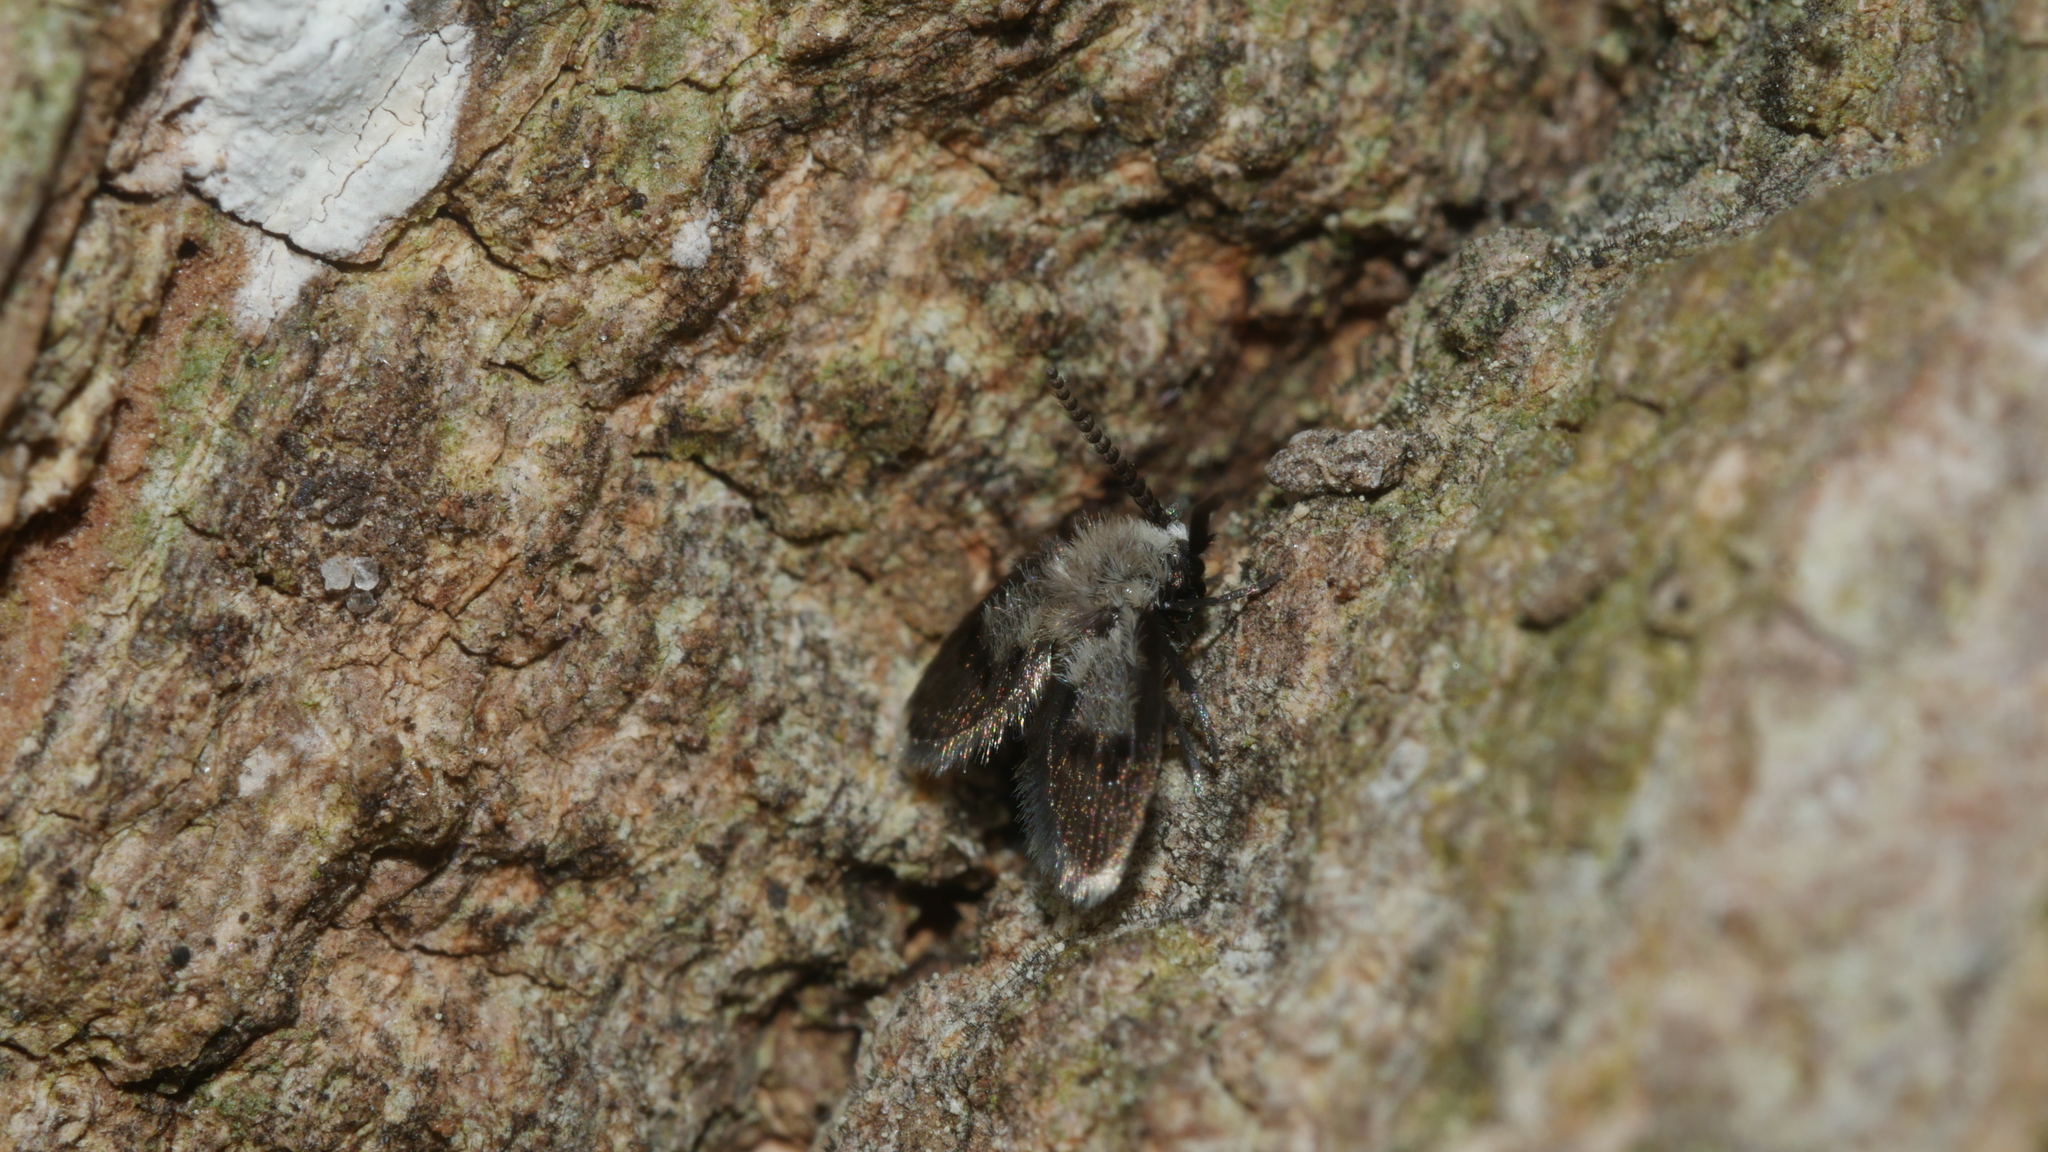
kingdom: Animalia
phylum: Arthropoda
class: Insecta
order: Diptera
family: Psychodidae
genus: Lepiseodina
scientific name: Lepiseodina
